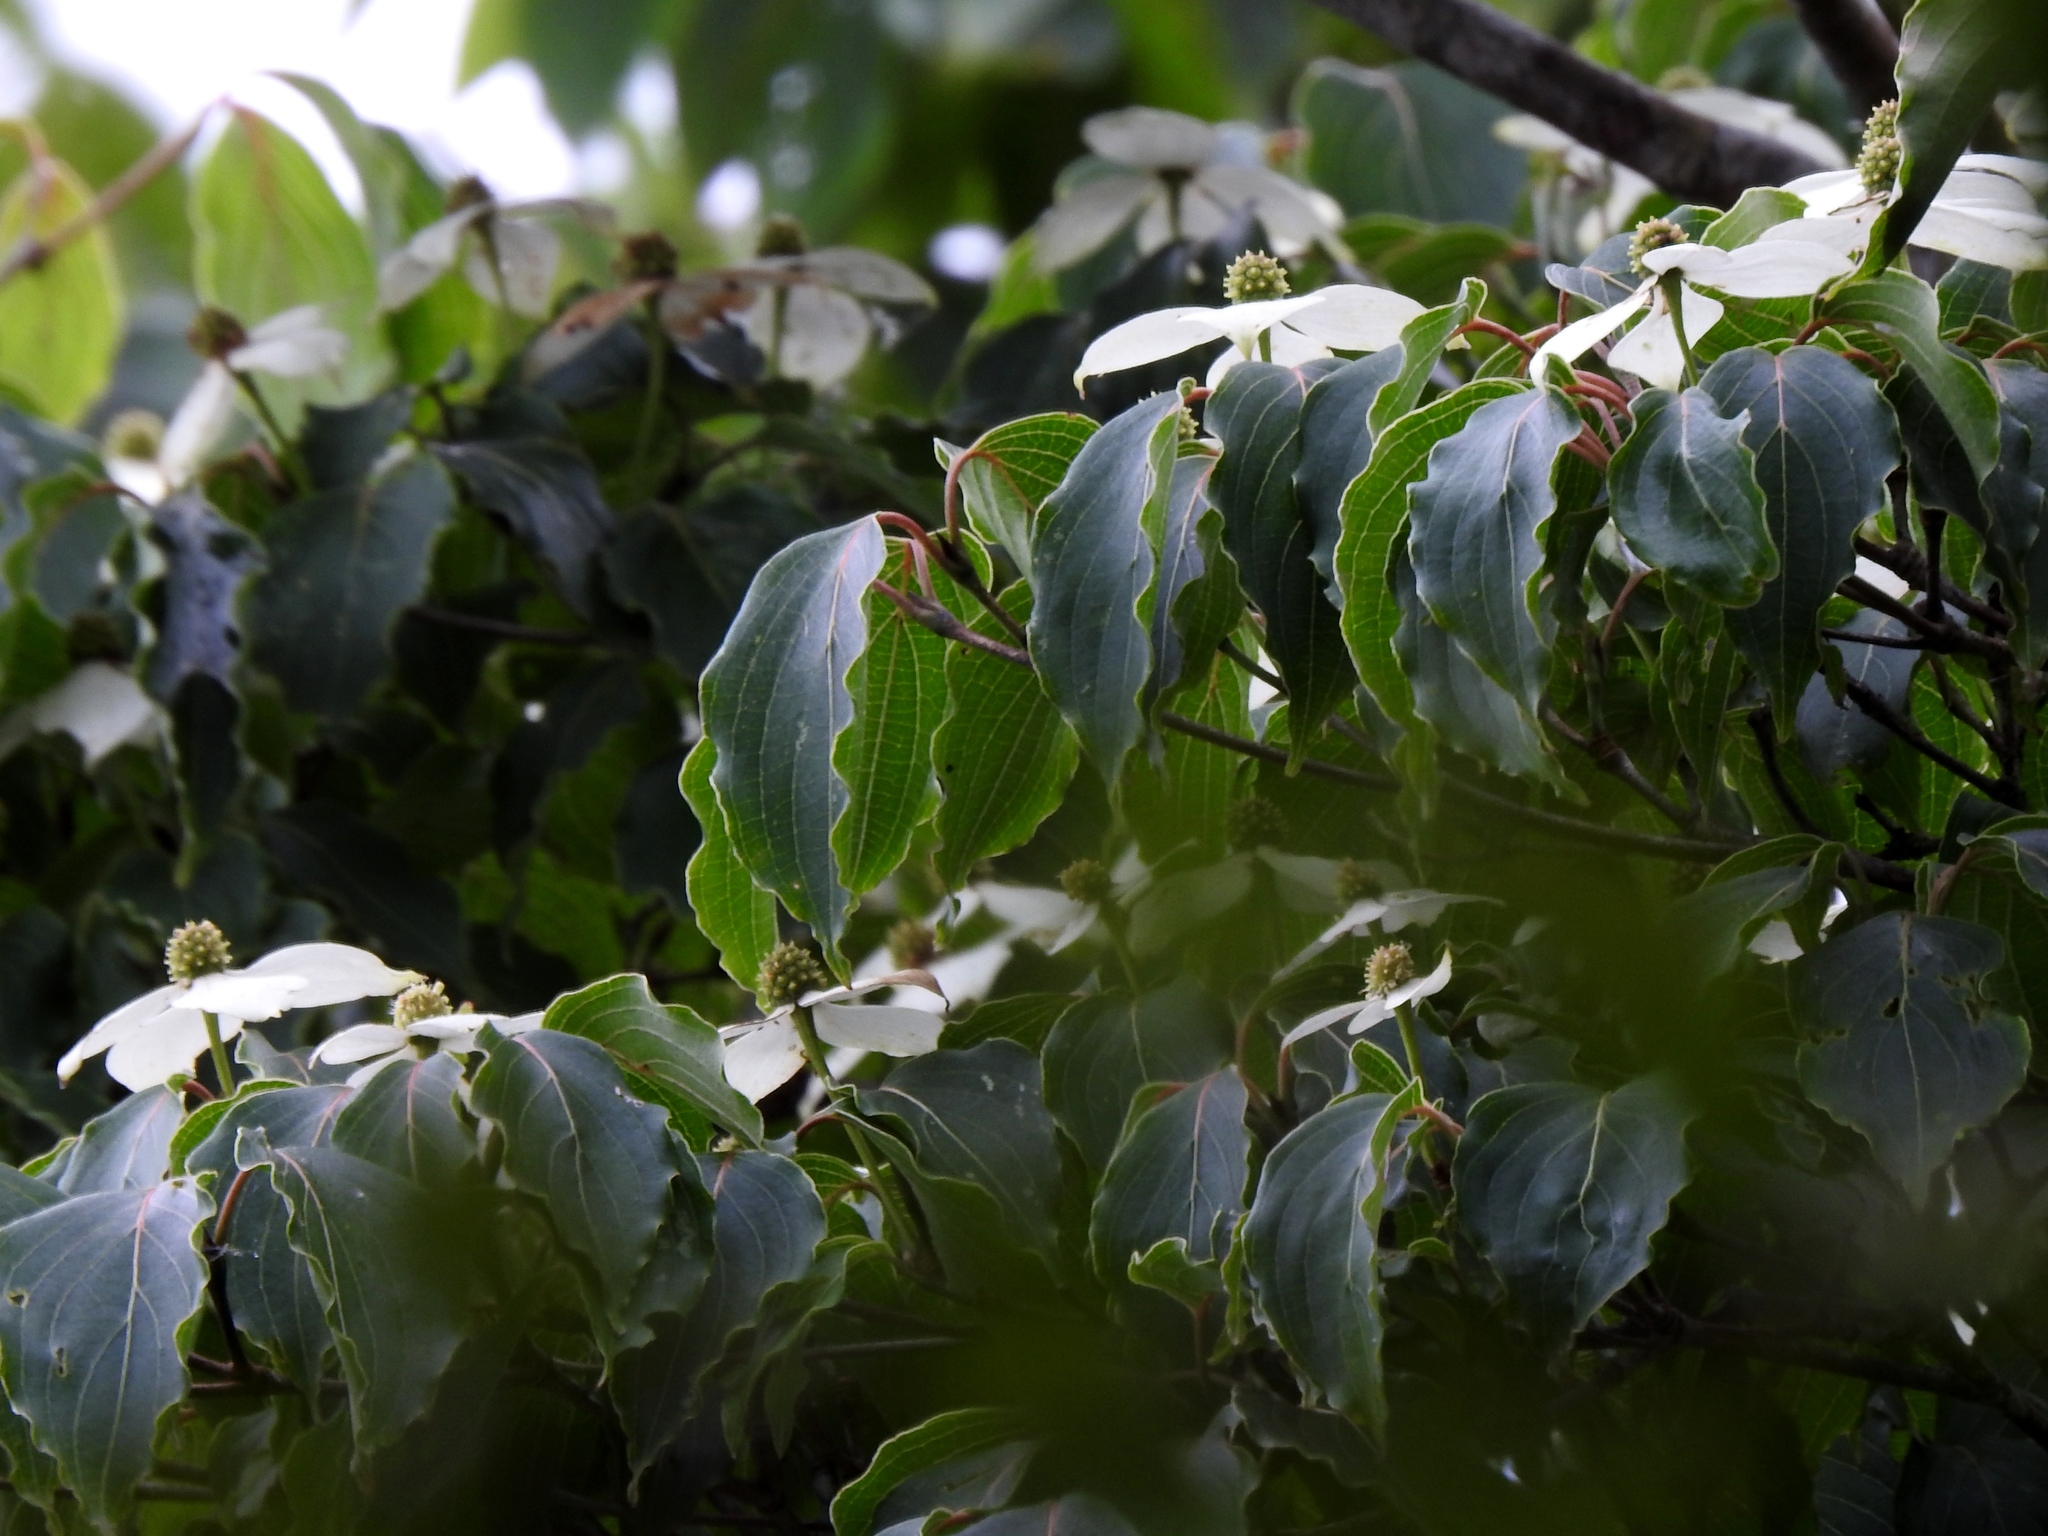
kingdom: Plantae
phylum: Tracheophyta
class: Magnoliopsida
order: Cornales
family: Cornaceae
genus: Cornus
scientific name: Cornus kousa
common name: Japanese dogwood
